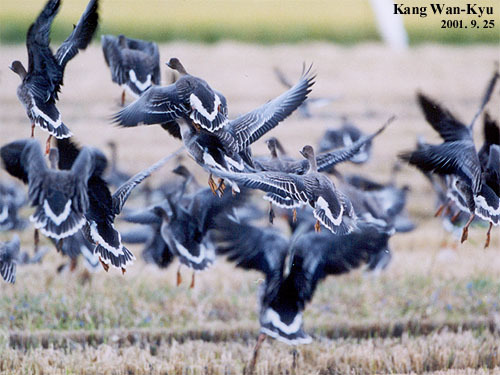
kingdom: Animalia
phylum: Chordata
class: Aves
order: Anseriformes
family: Anatidae
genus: Anser
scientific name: Anser fabalis
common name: Bean goose
